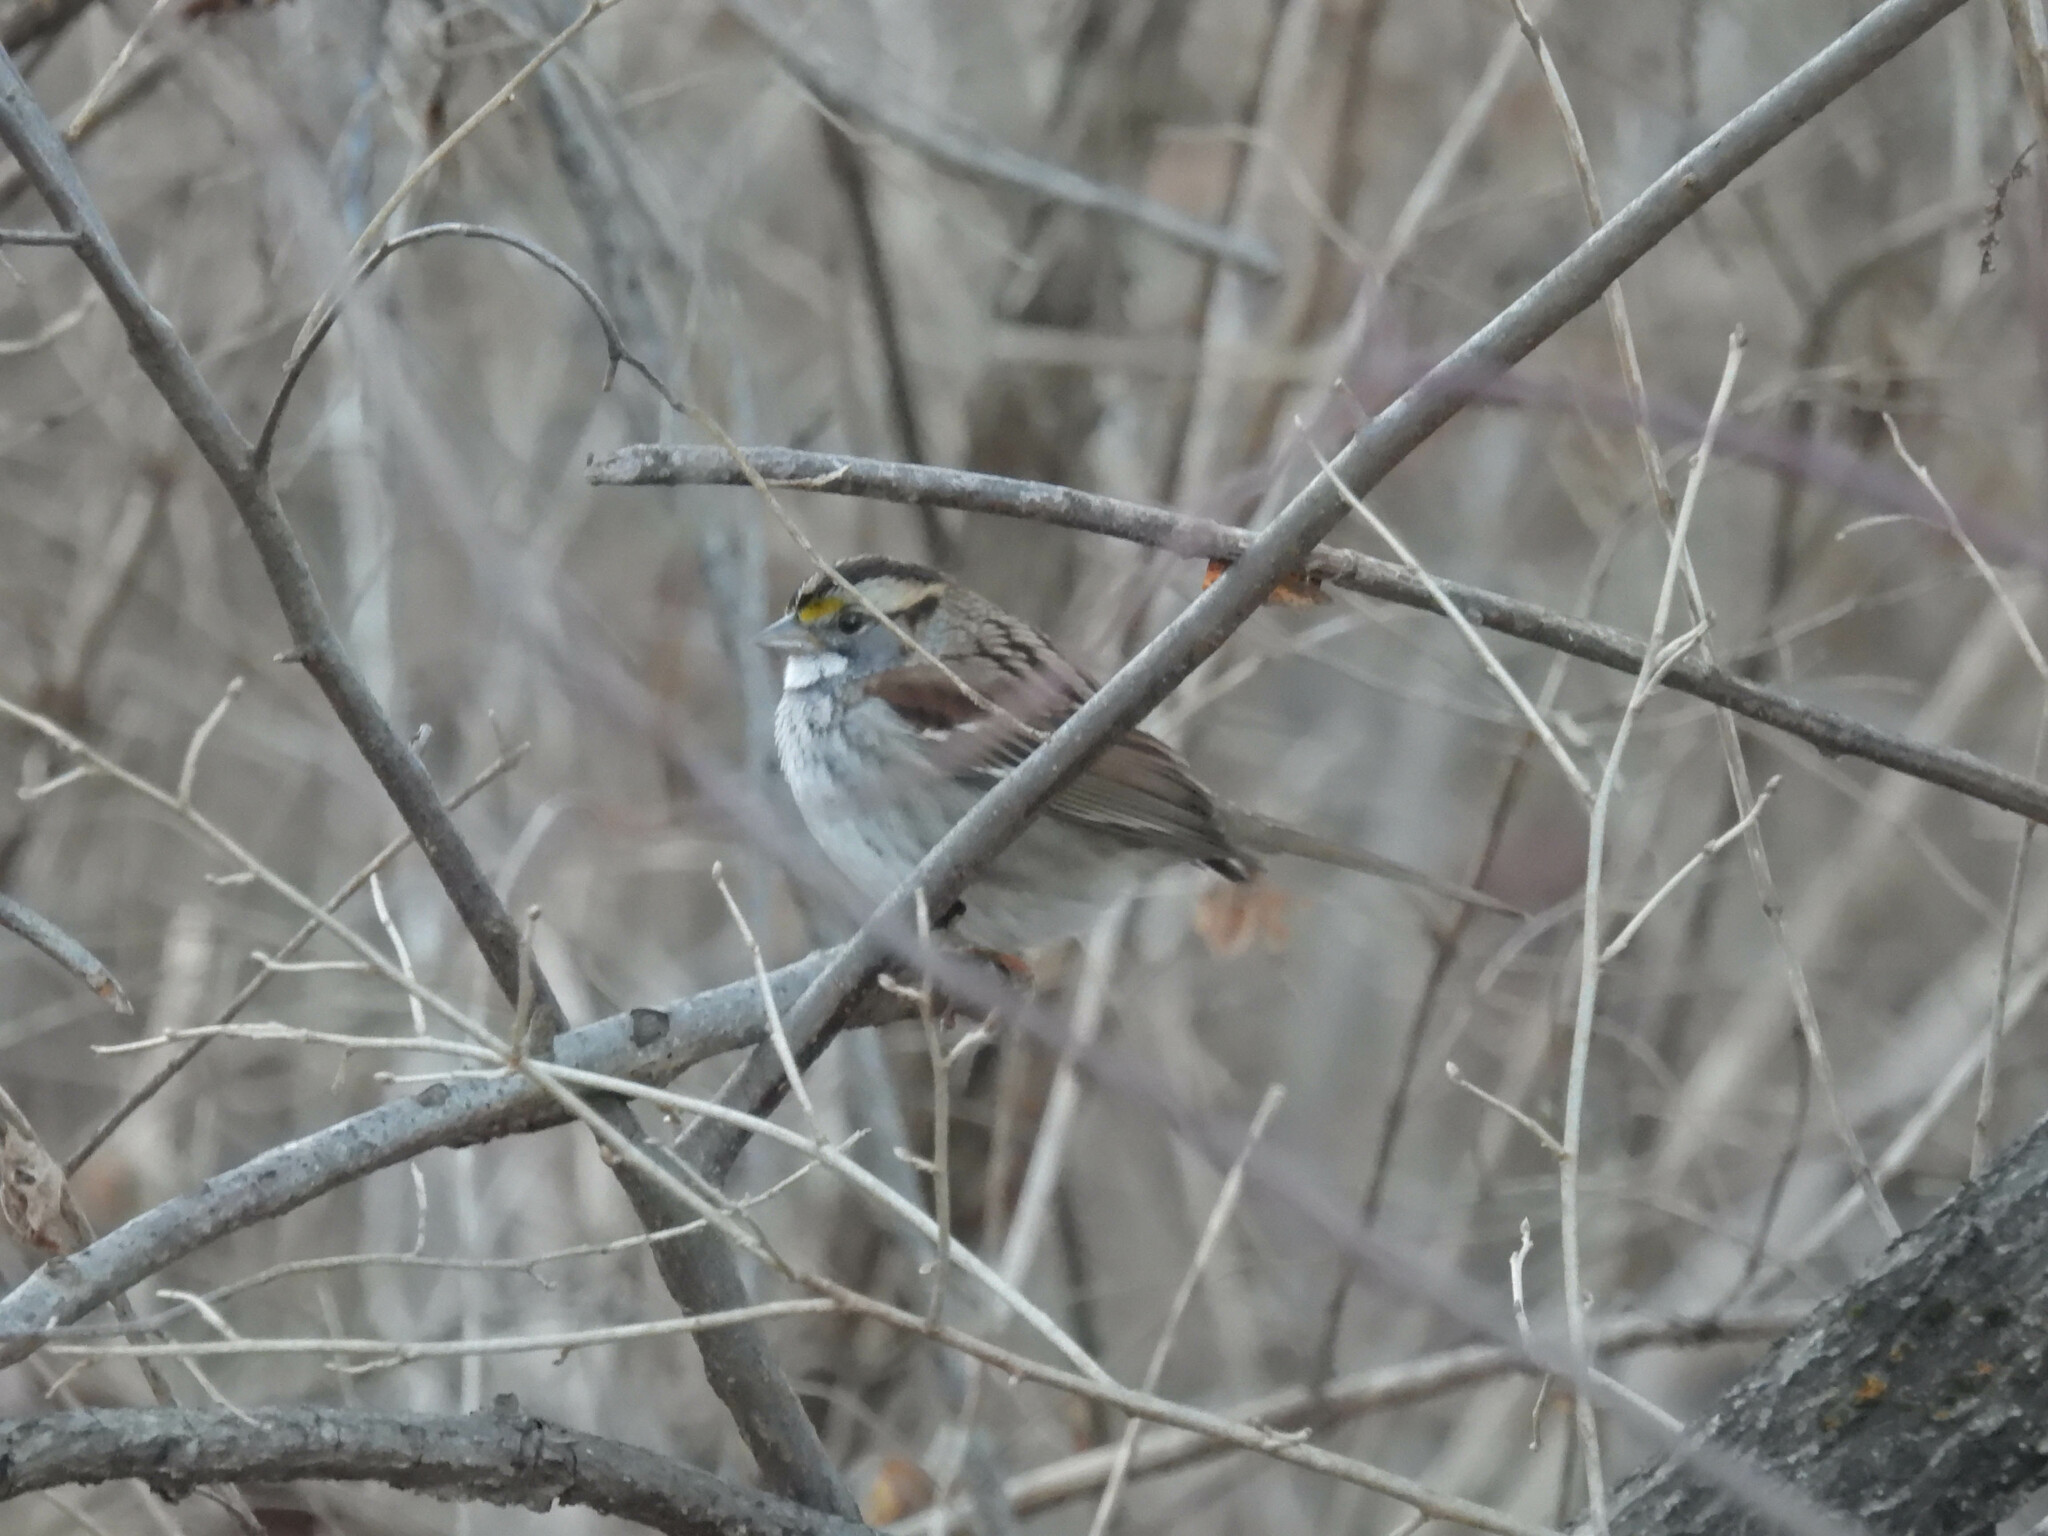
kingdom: Animalia
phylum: Chordata
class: Aves
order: Passeriformes
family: Passerellidae
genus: Zonotrichia
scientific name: Zonotrichia albicollis
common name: White-throated sparrow
